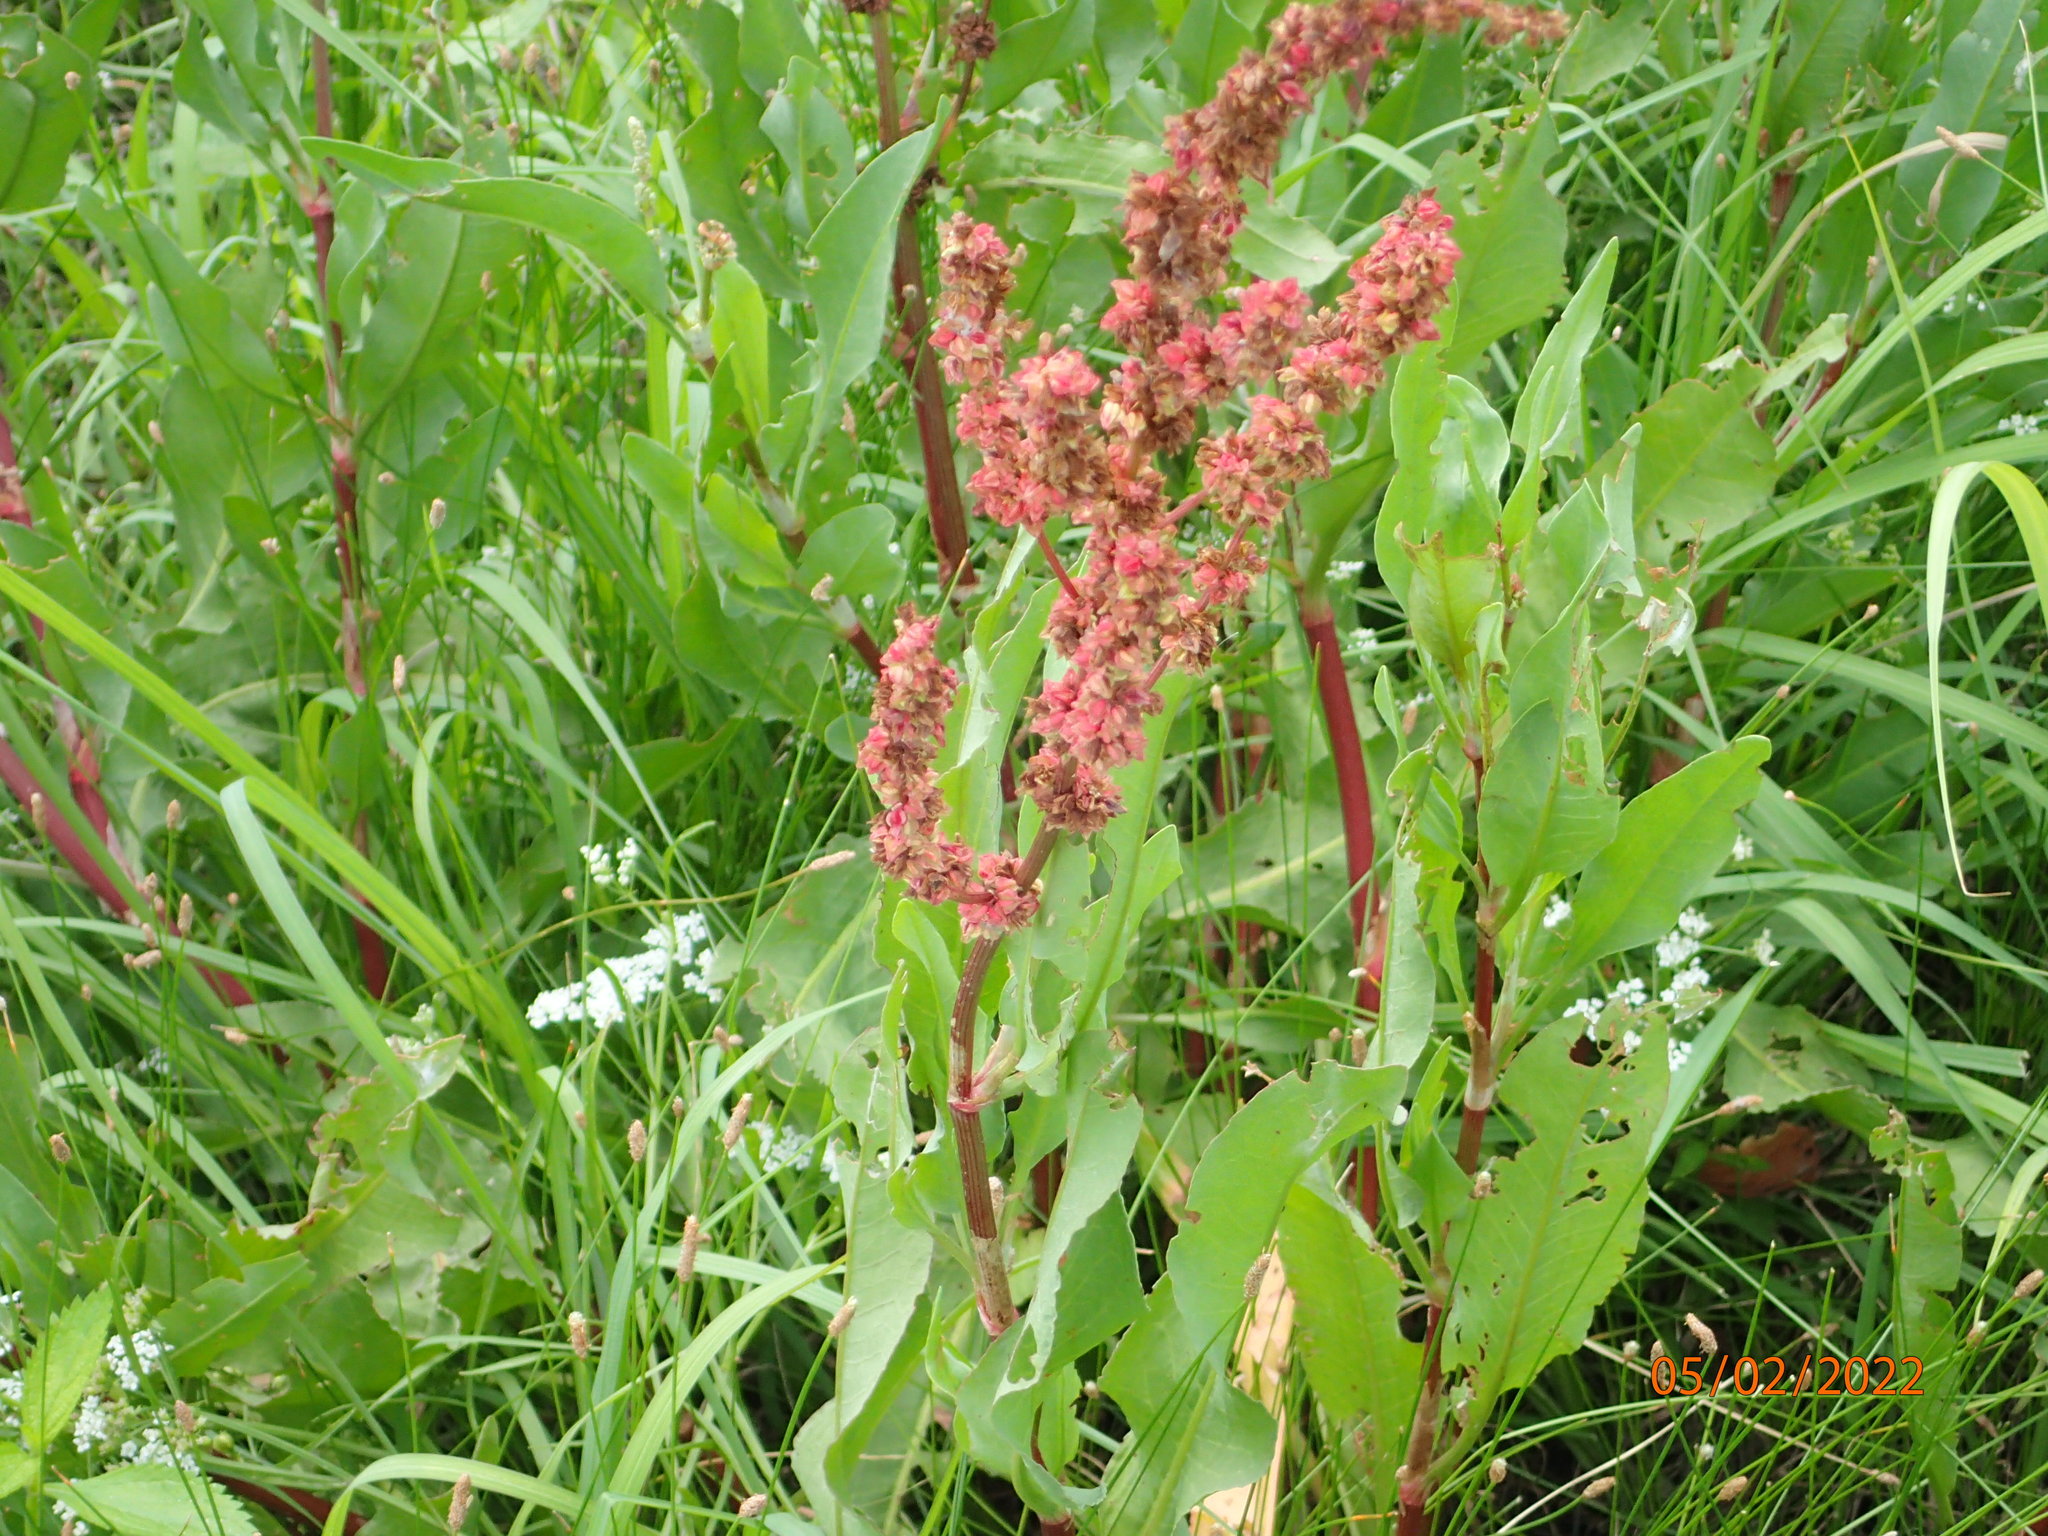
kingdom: Plantae
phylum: Tracheophyta
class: Magnoliopsida
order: Caryophyllales
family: Polygonaceae
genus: Rumex
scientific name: Rumex crispus
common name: Curled dock
